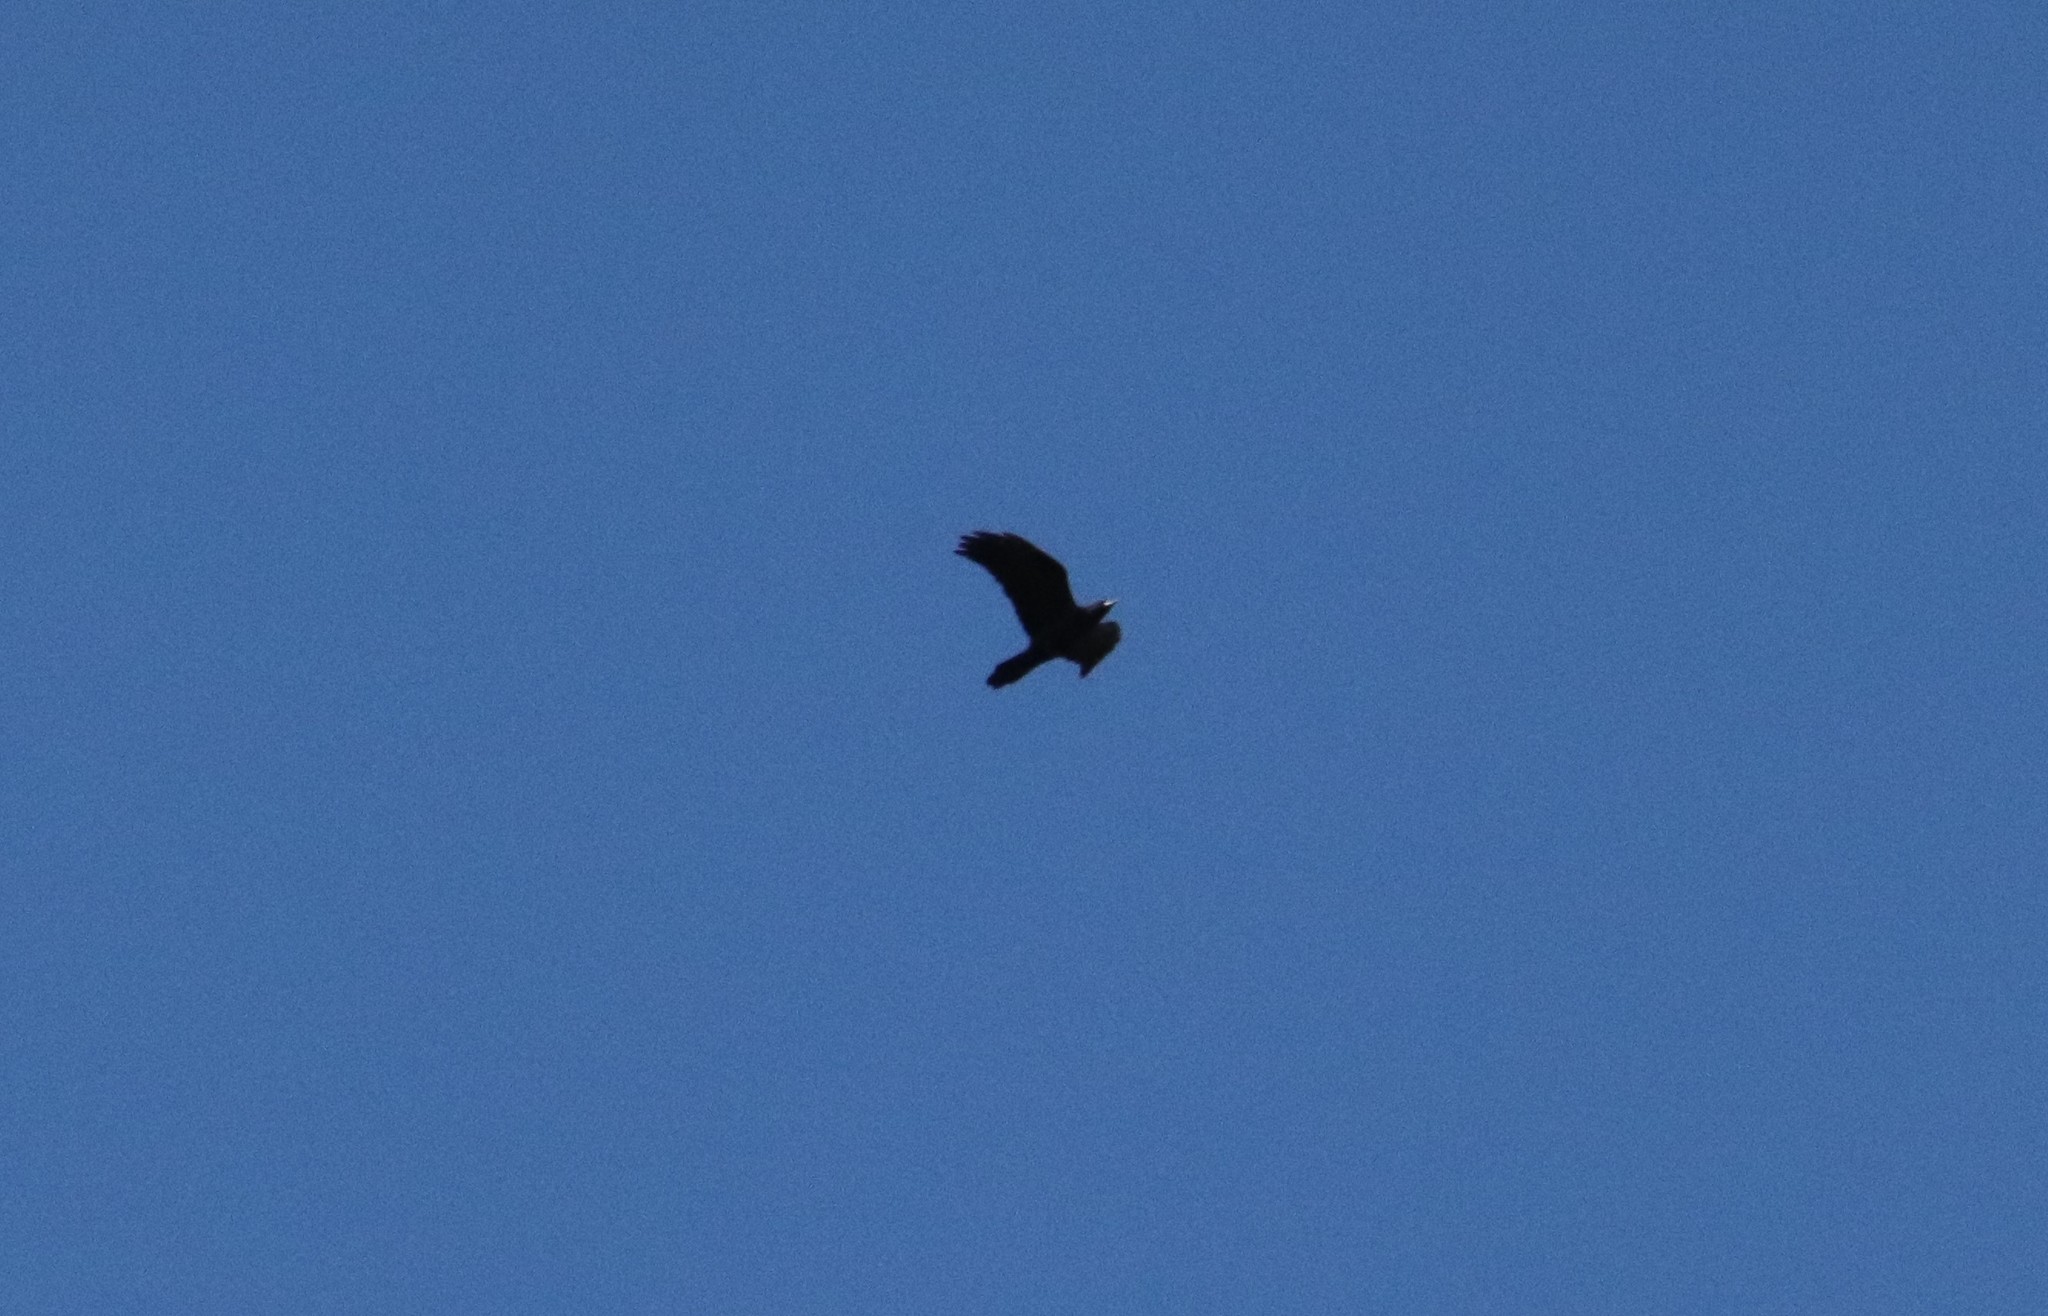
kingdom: Animalia
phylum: Chordata
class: Aves
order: Passeriformes
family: Corvidae
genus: Corvus
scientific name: Corvus corax
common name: Common raven
